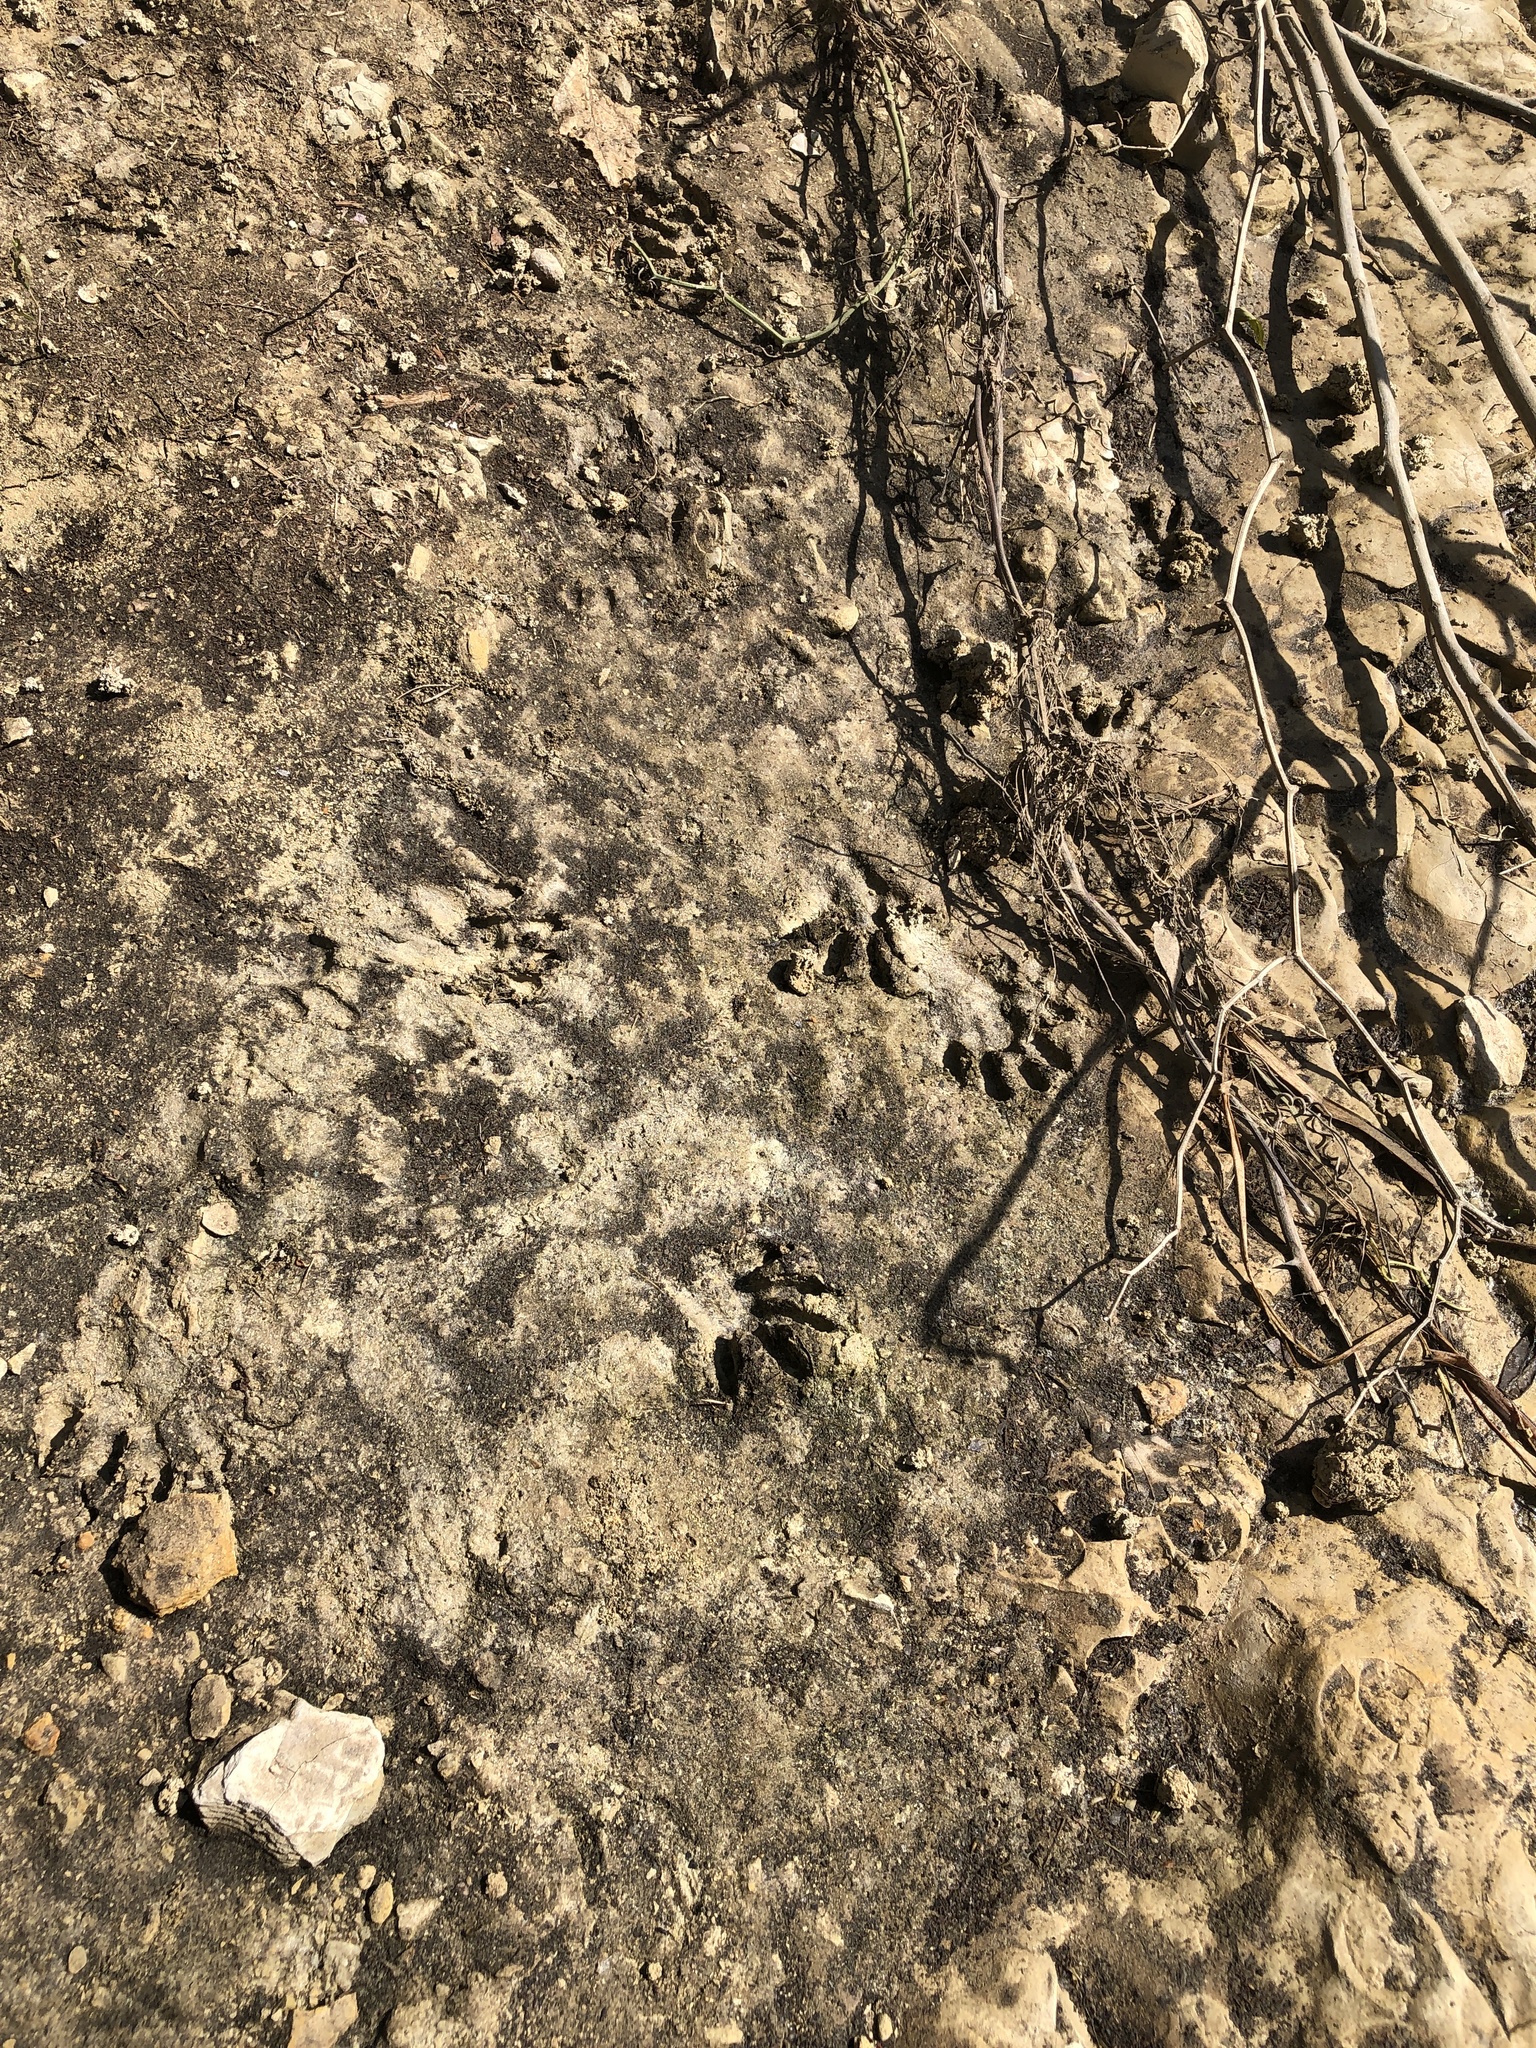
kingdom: Animalia
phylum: Chordata
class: Mammalia
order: Carnivora
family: Procyonidae
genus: Procyon
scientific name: Procyon lotor
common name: Raccoon
